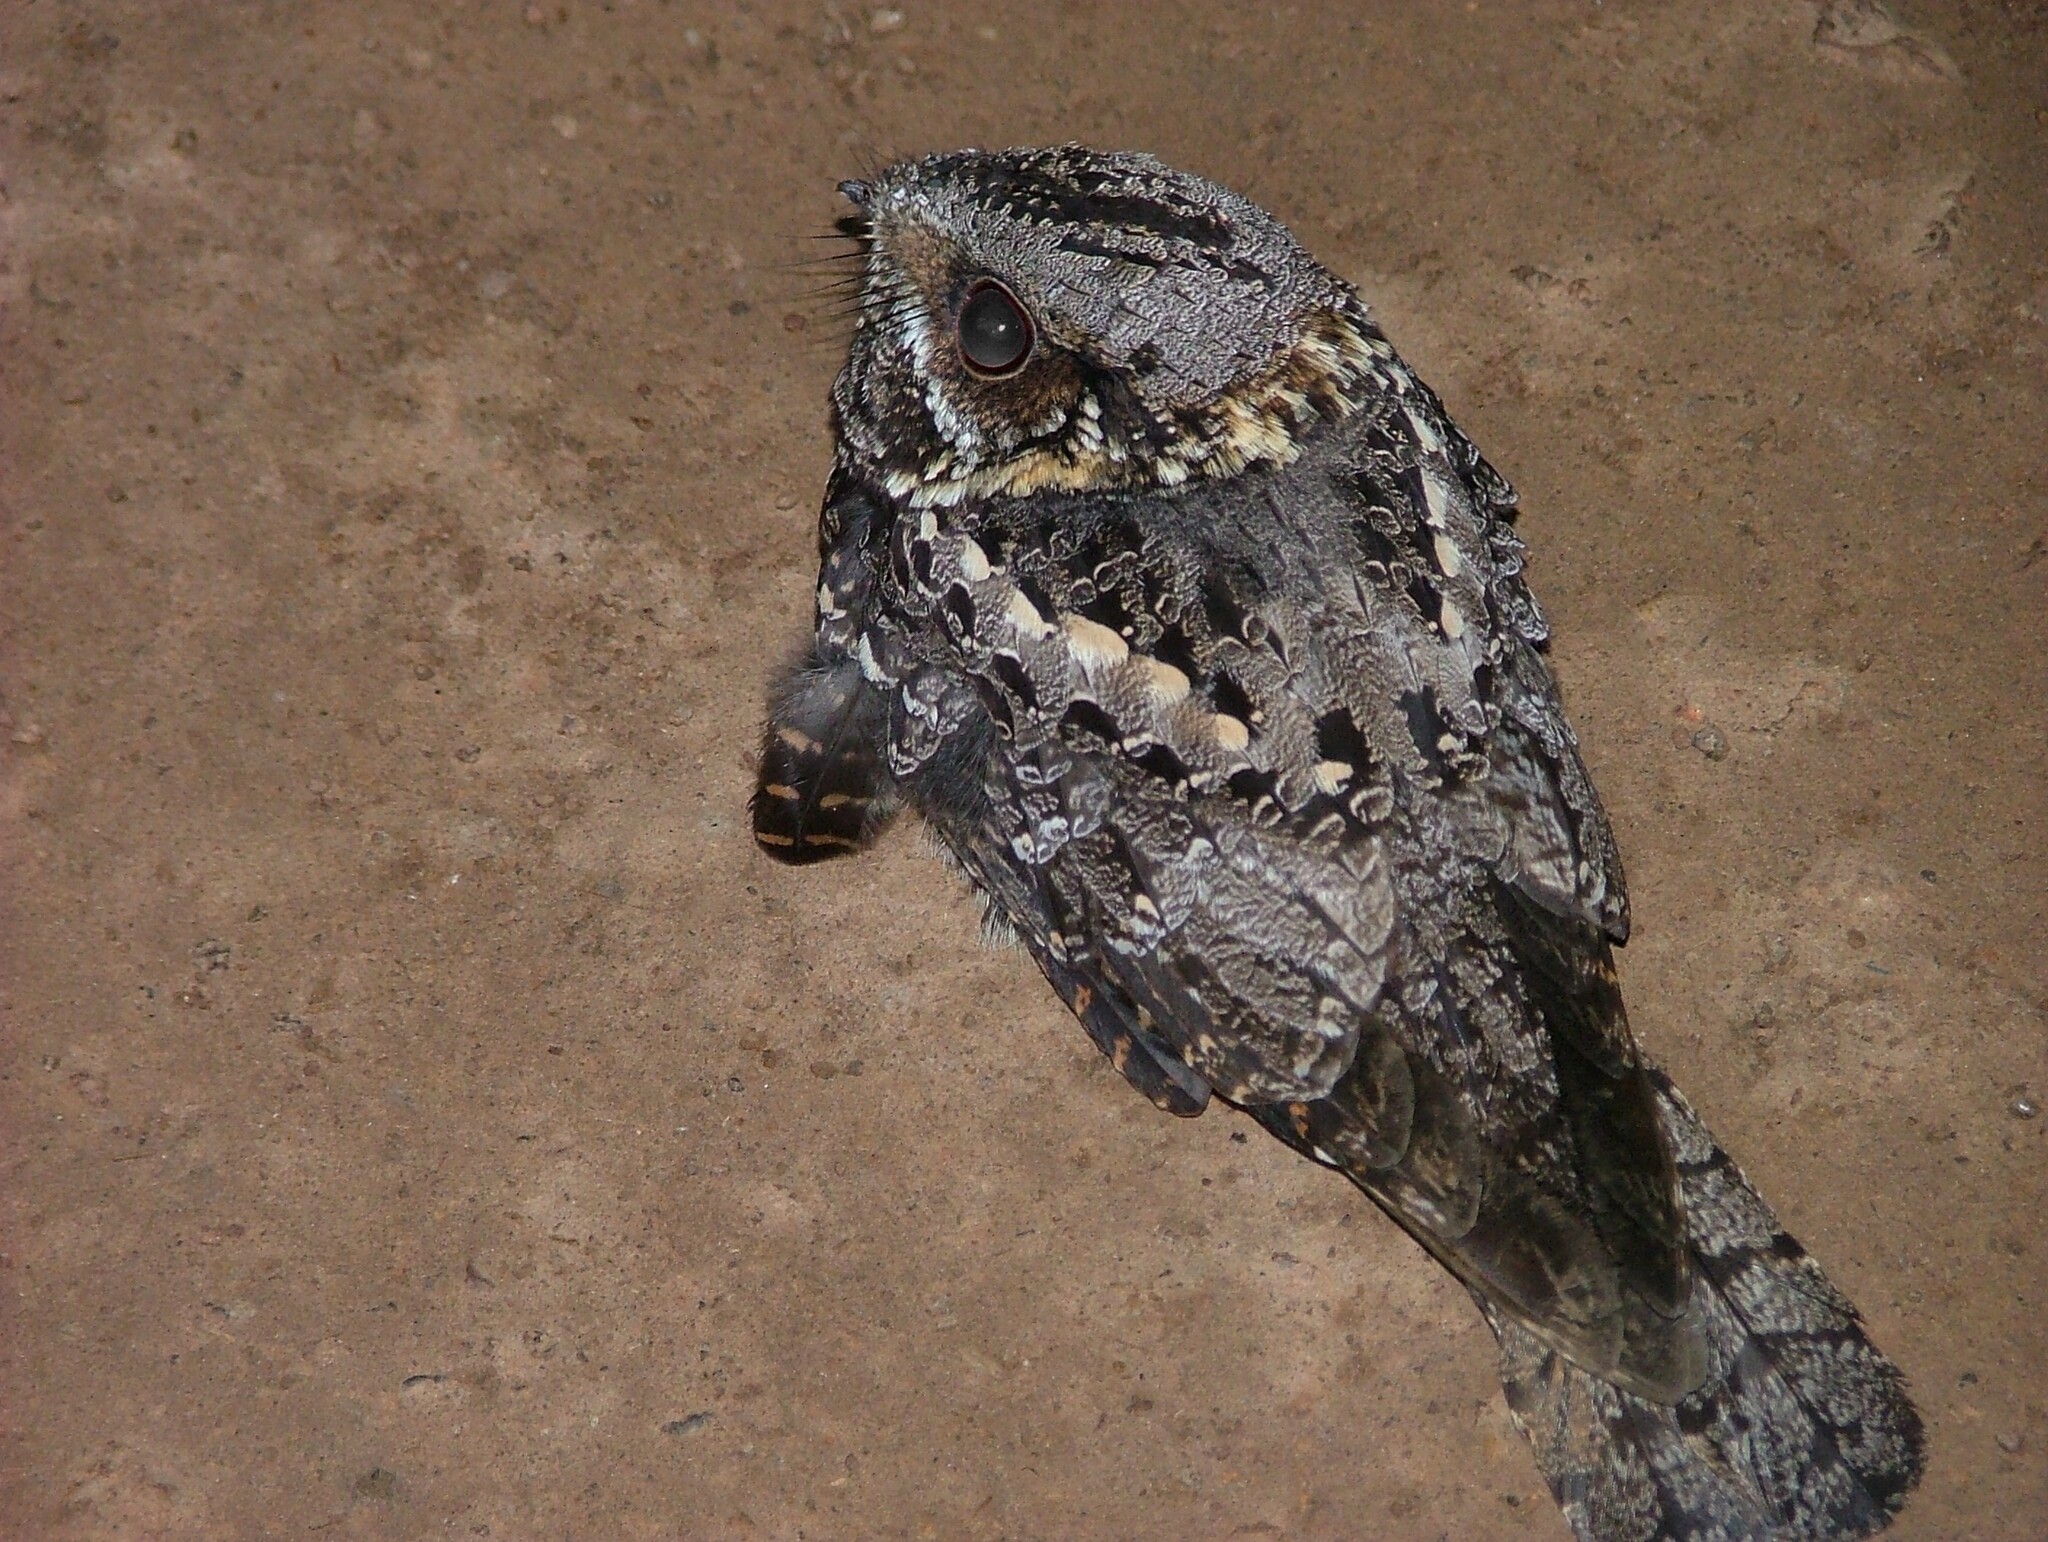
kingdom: Animalia
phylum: Chordata
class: Aves
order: Caprimulgiformes
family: Caprimulgidae
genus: Caprimulgus
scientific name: Caprimulgus pectoralis
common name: Fiery-necked nightjar
